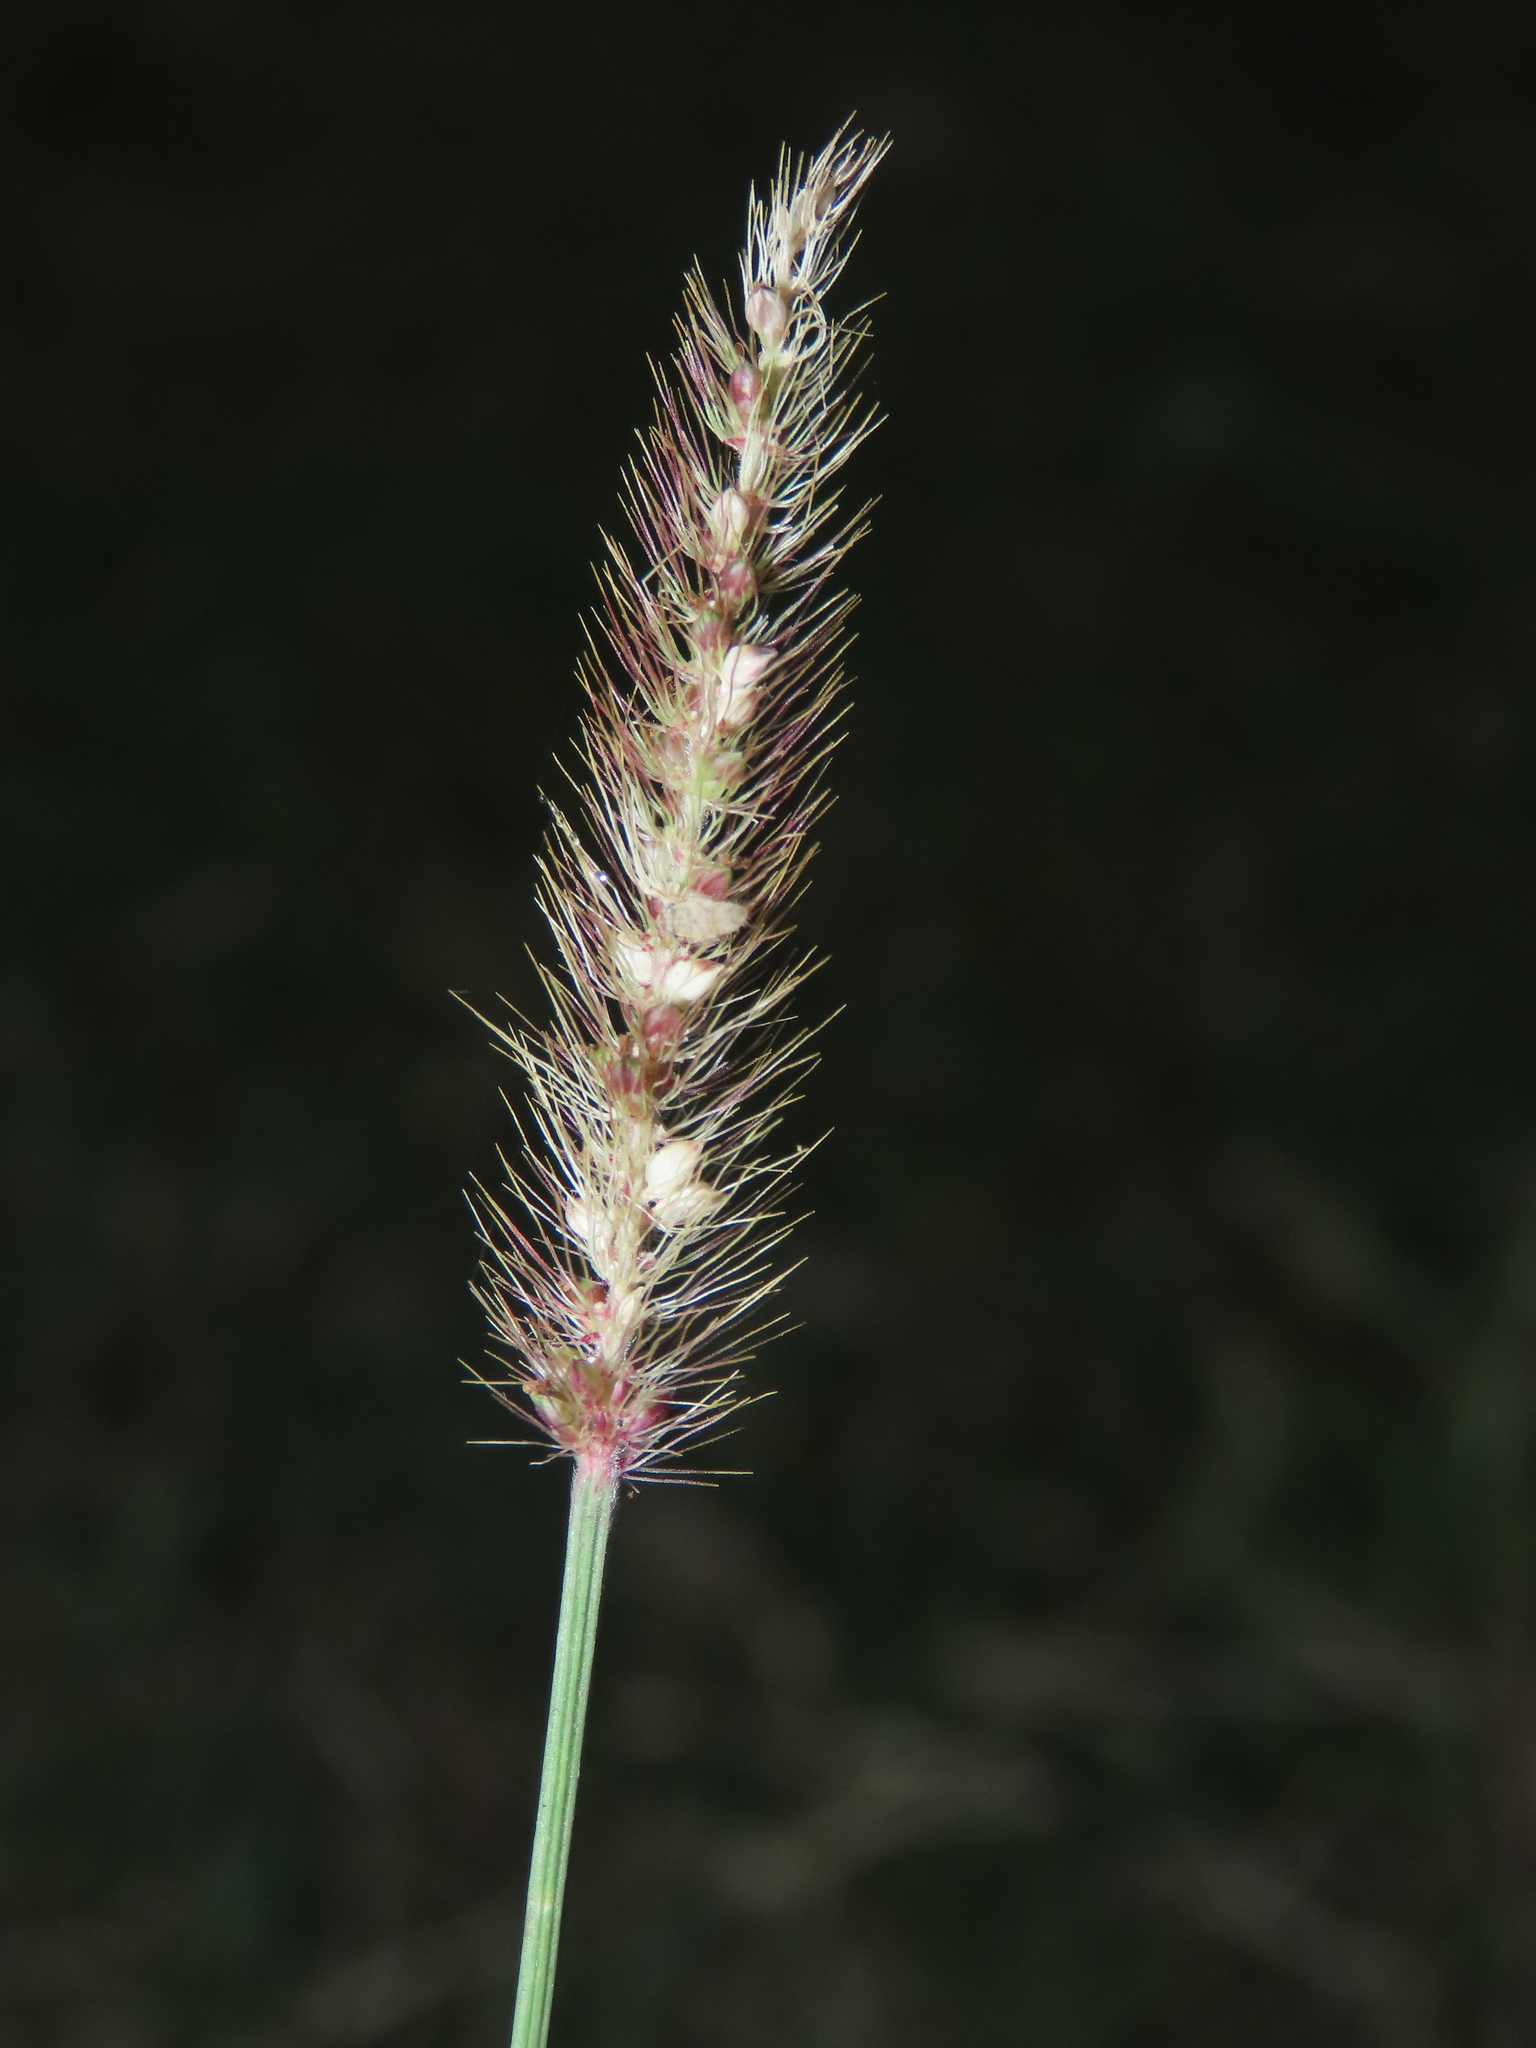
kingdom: Plantae
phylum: Tracheophyta
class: Liliopsida
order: Poales
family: Poaceae
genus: Setaria
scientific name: Setaria parviflora
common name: Knotroot bristle-grass
